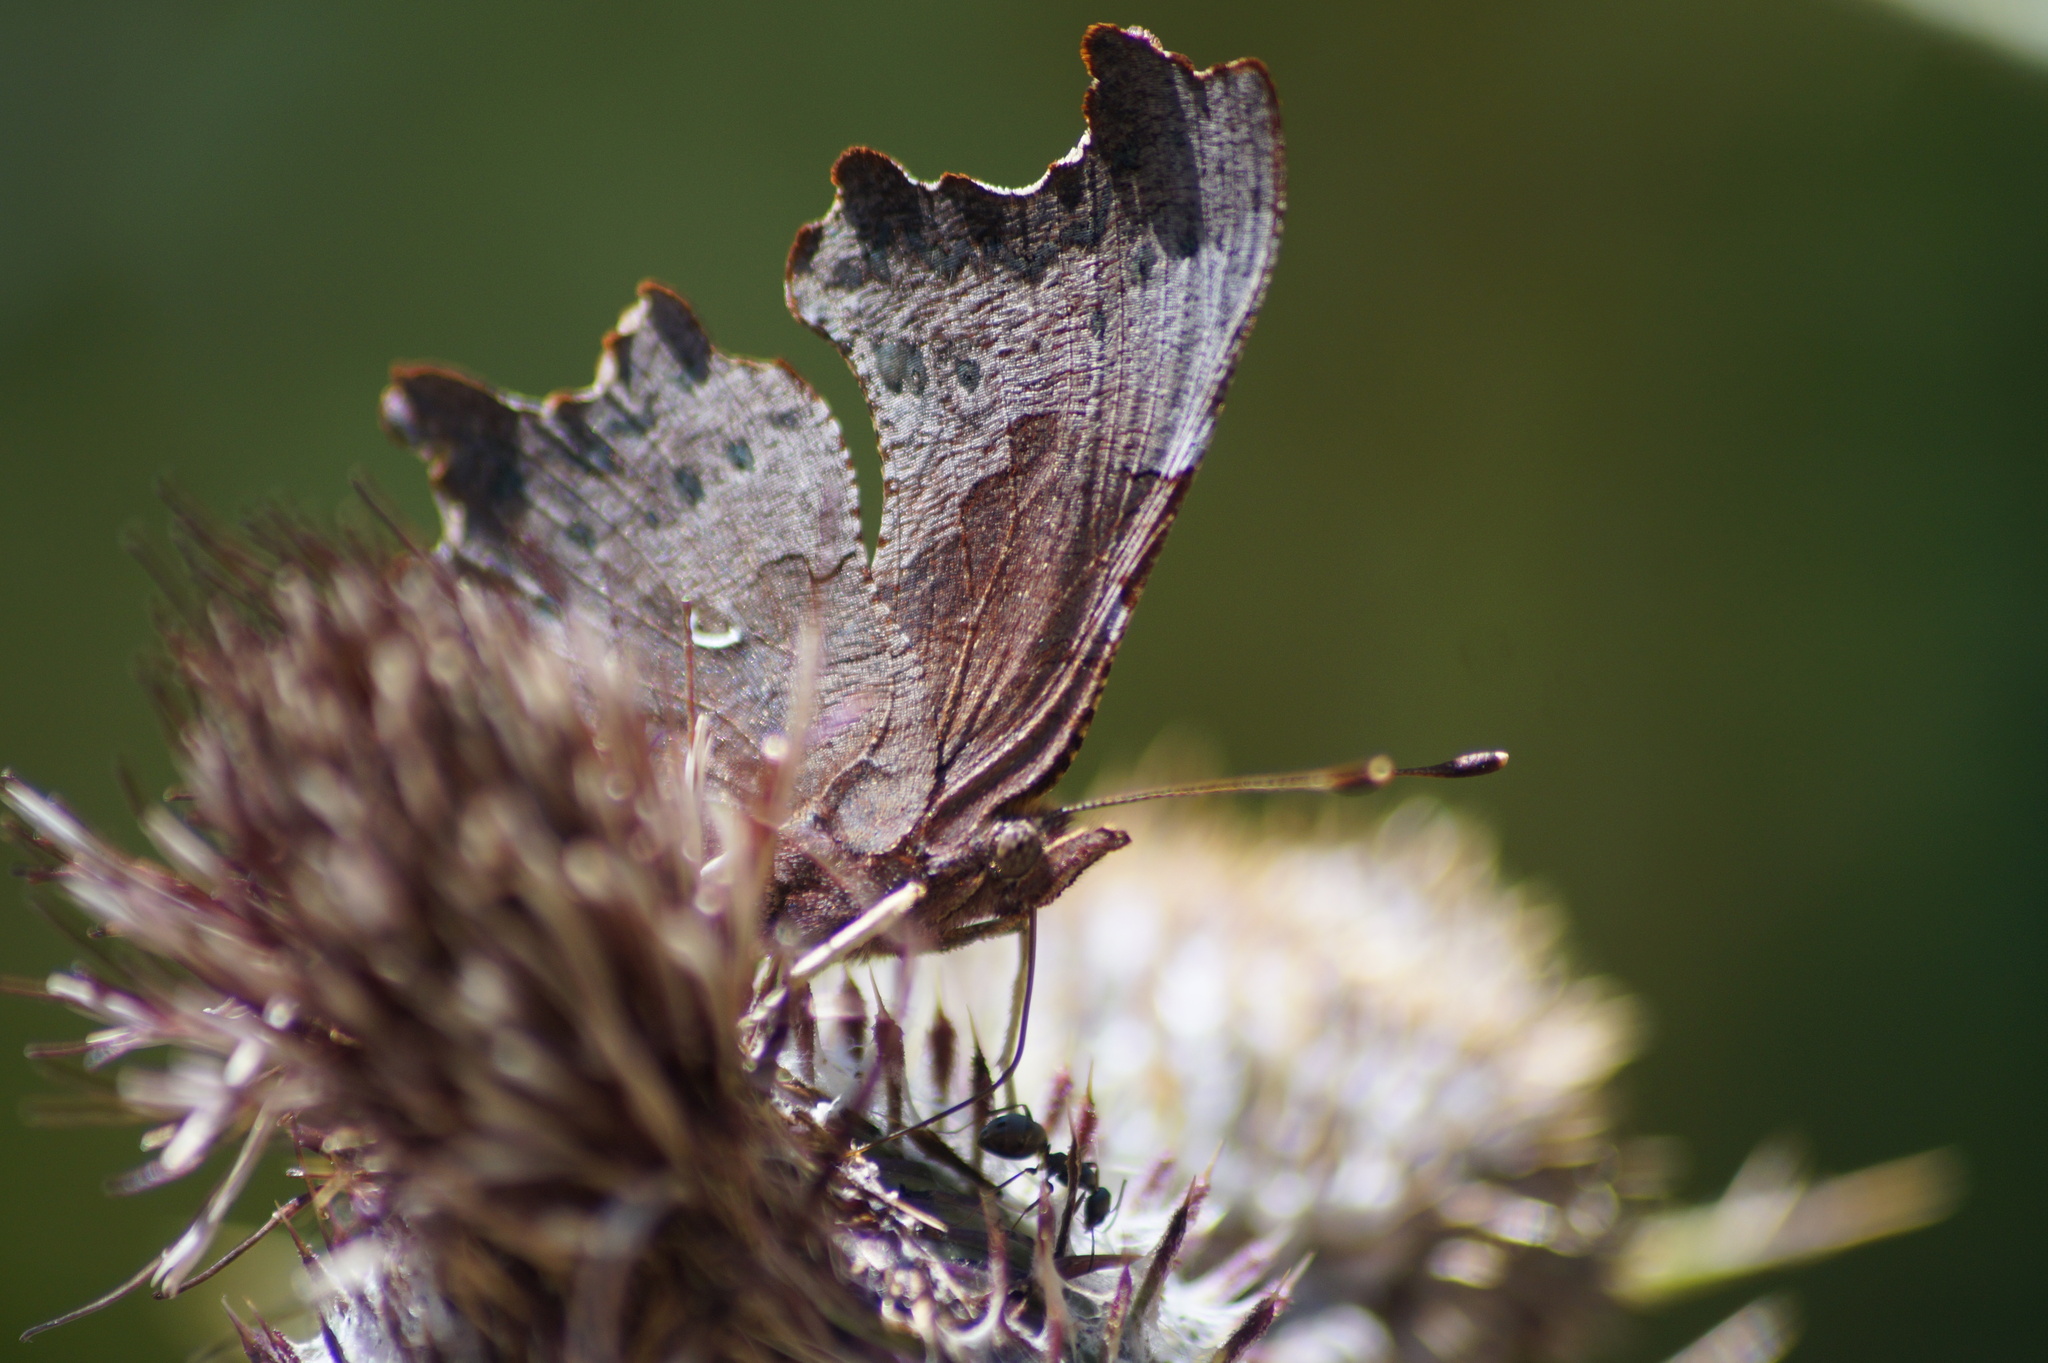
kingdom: Animalia
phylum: Arthropoda
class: Insecta
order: Lepidoptera
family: Nymphalidae
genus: Polygonia
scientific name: Polygonia c-album
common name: Comma
